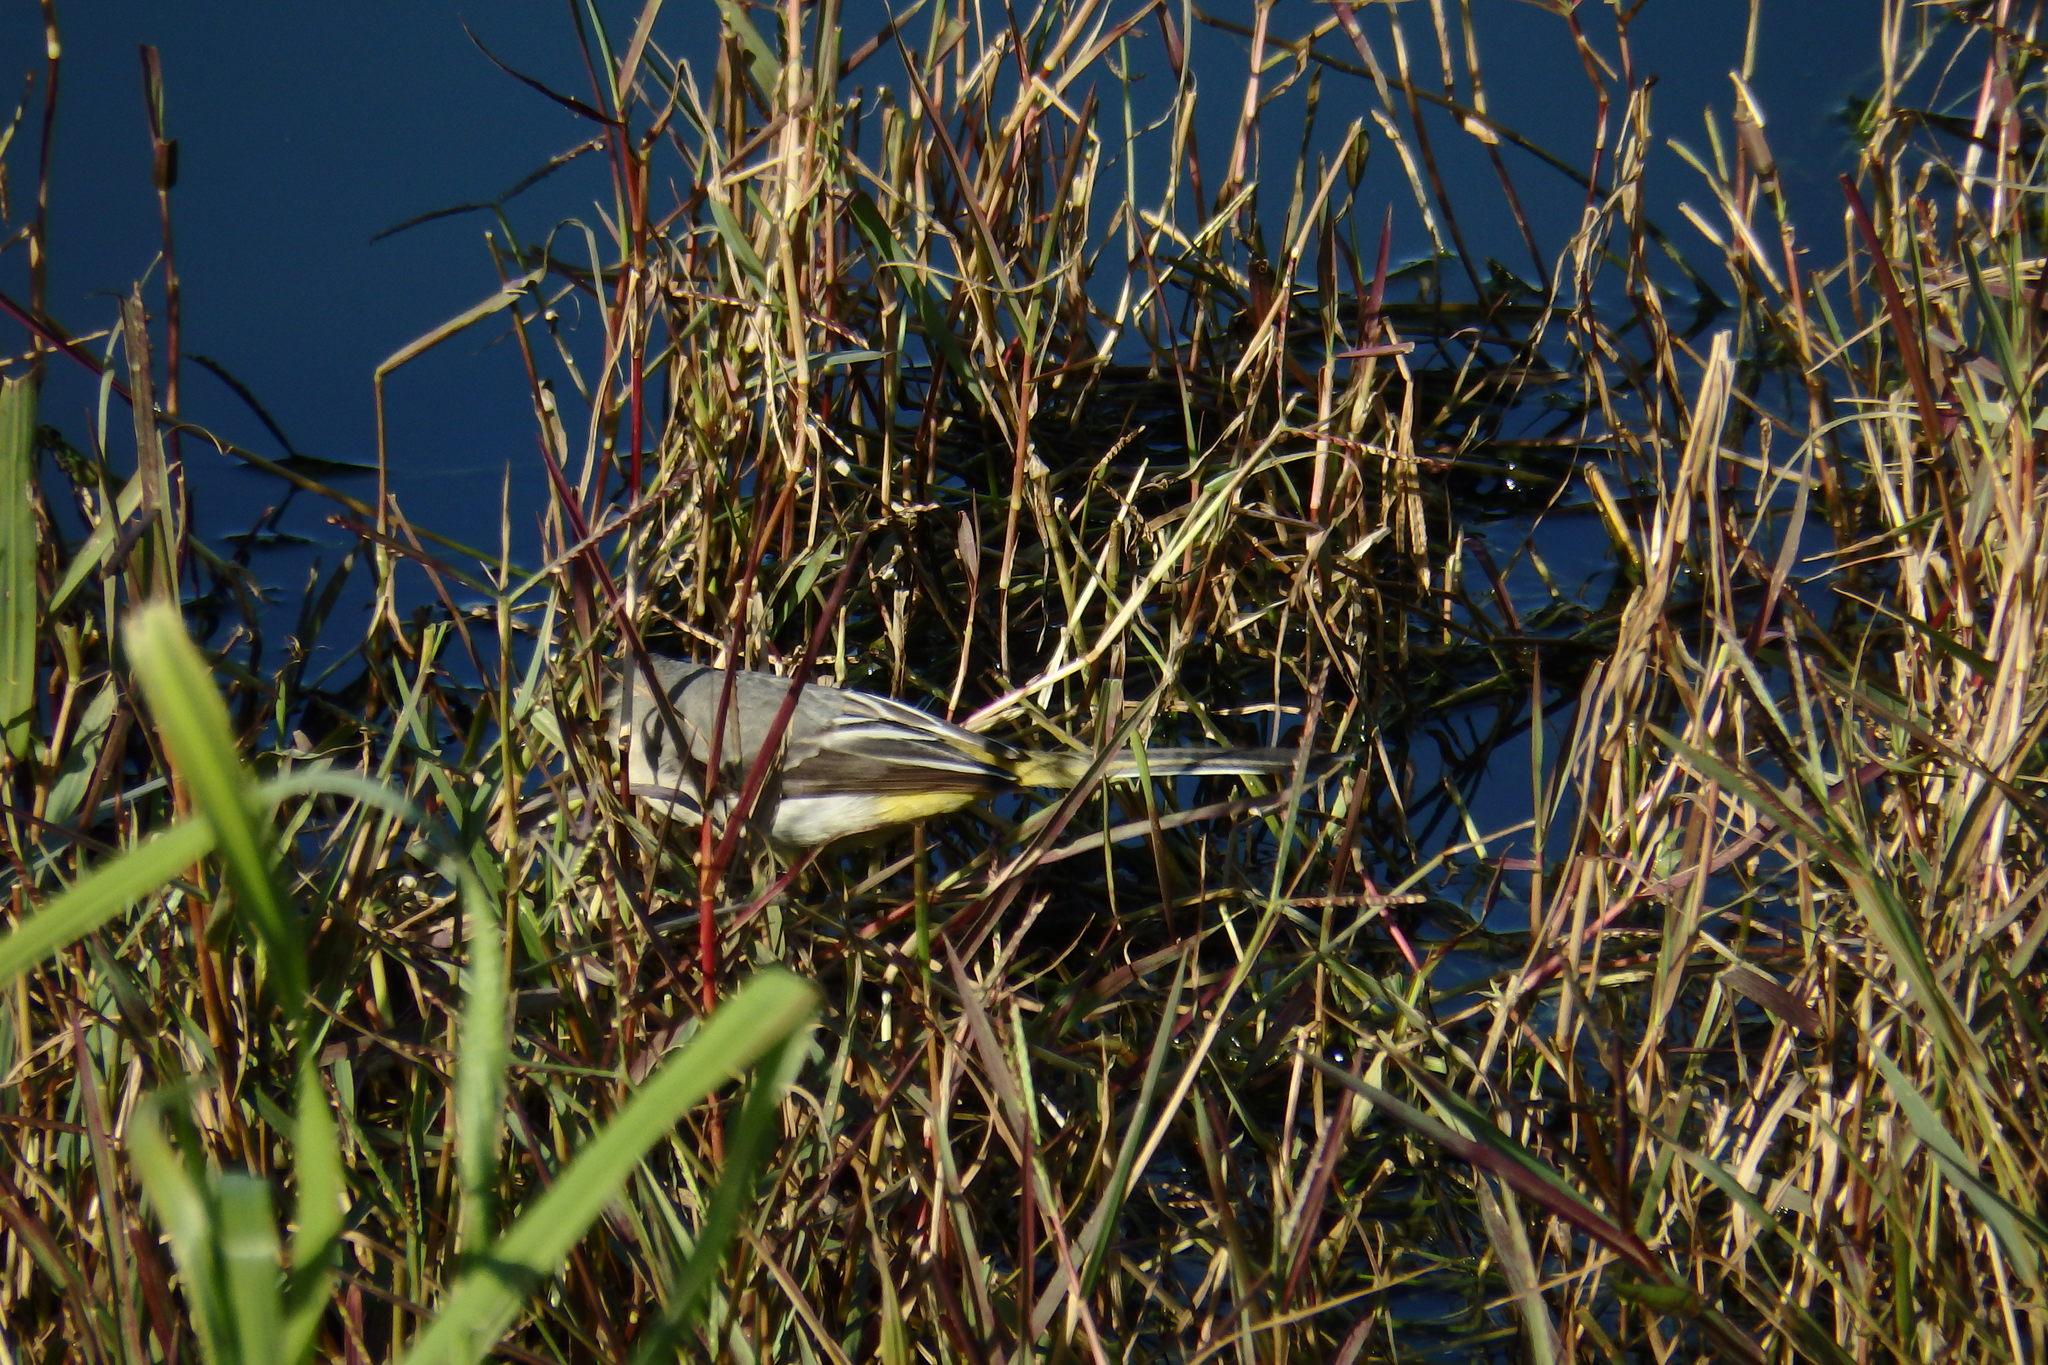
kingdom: Animalia
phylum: Chordata
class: Aves
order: Passeriformes
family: Motacillidae
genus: Motacilla
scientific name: Motacilla cinerea
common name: Grey wagtail
